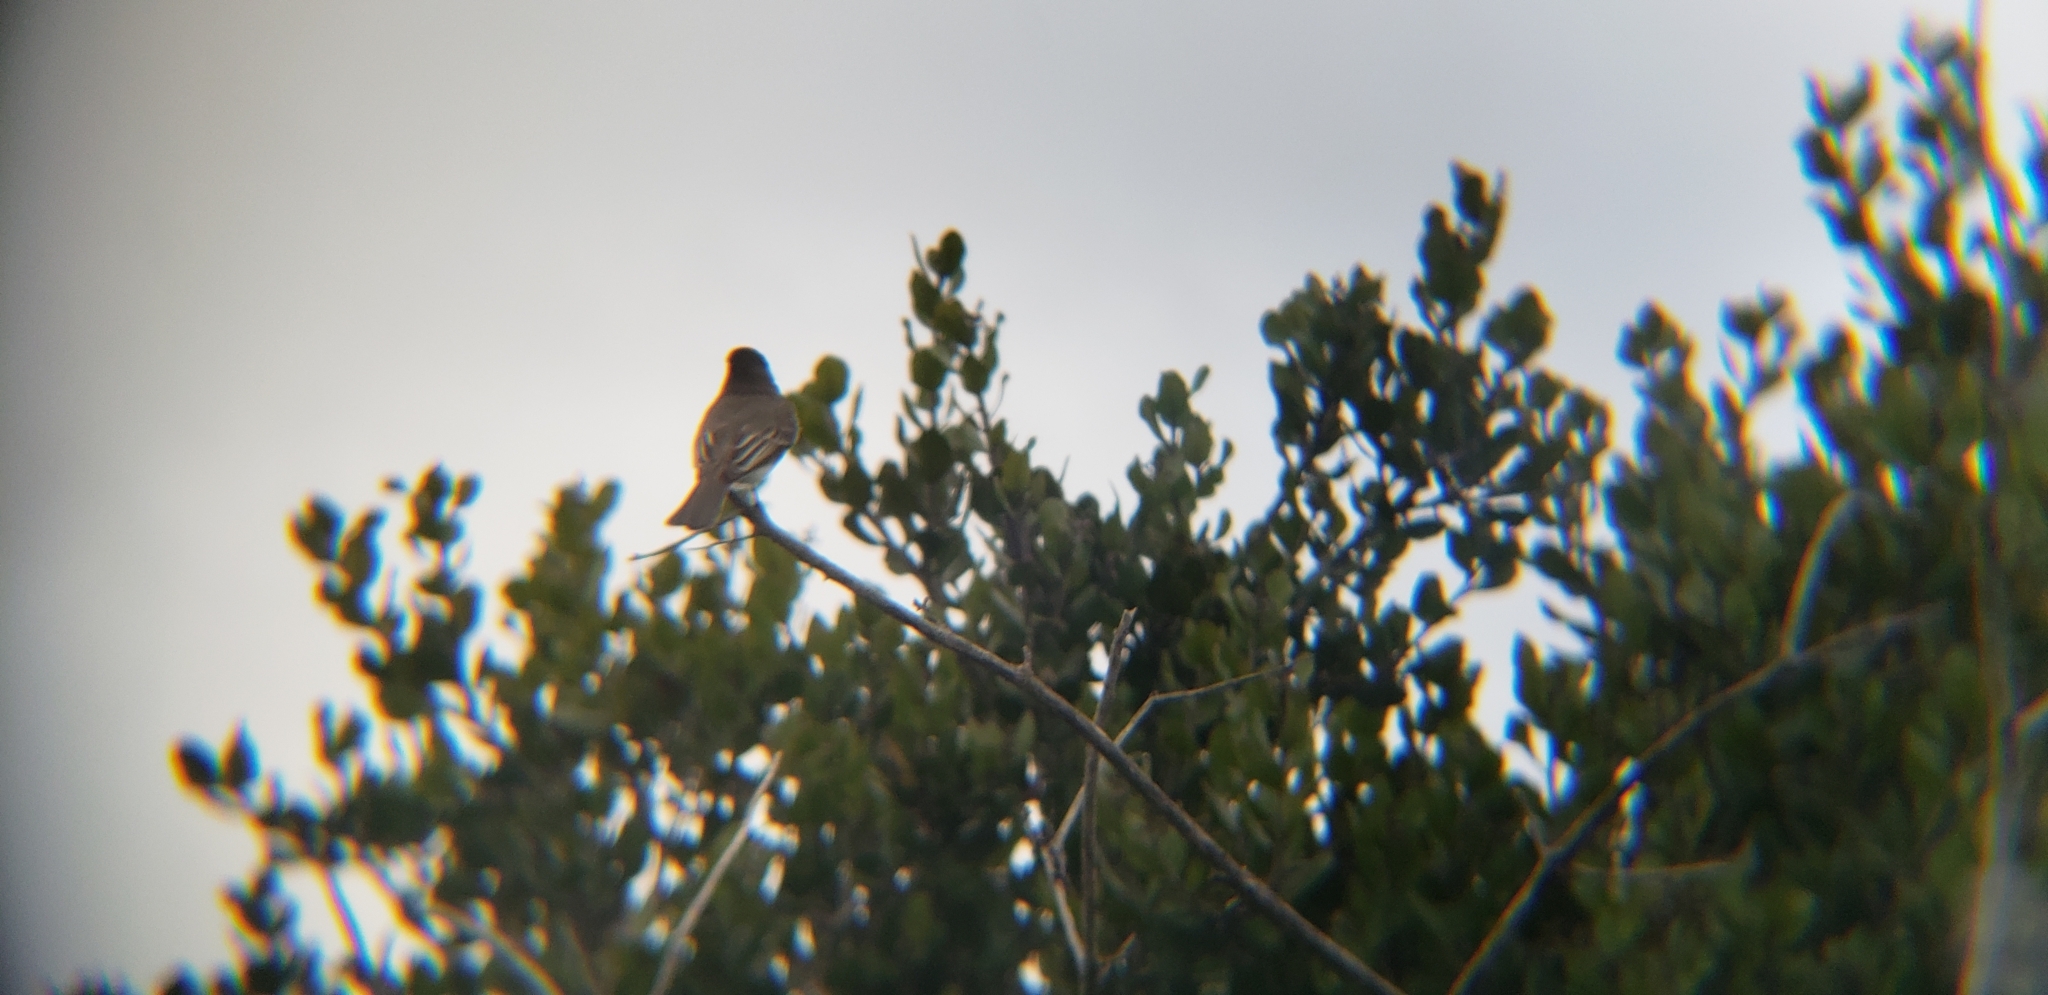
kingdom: Animalia
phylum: Chordata
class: Aves
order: Passeriformes
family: Tyrannidae
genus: Sayornis
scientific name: Sayornis nigricans
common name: Black phoebe
